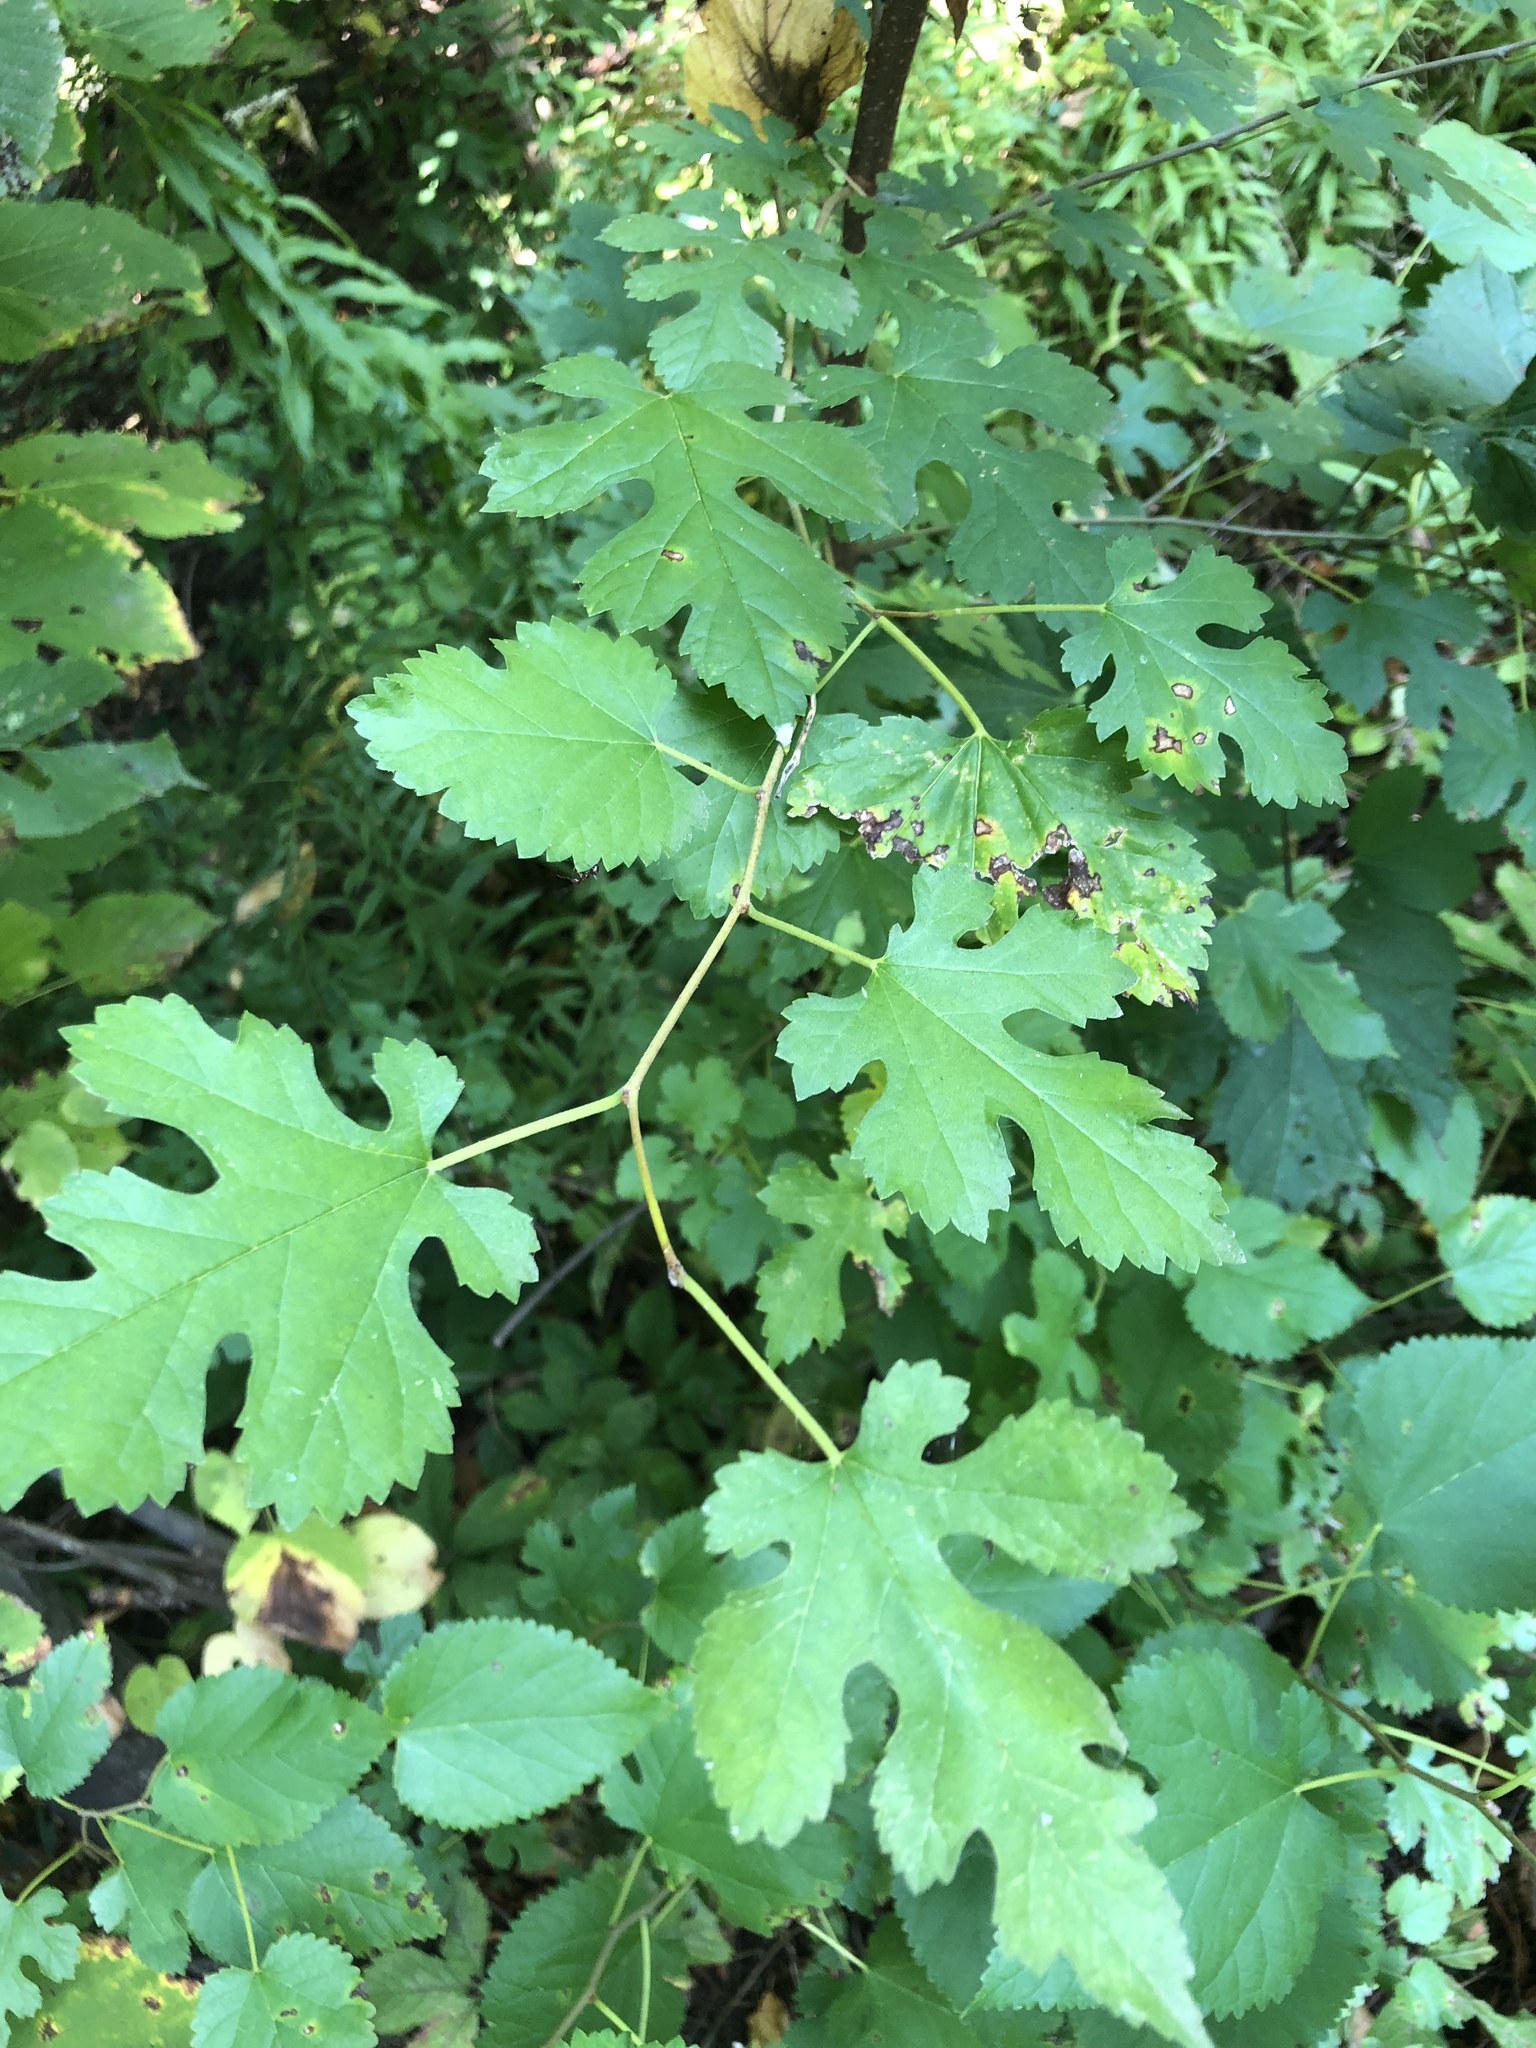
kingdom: Plantae
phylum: Tracheophyta
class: Magnoliopsida
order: Rosales
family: Moraceae
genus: Morus
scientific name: Morus alba
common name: White mulberry
